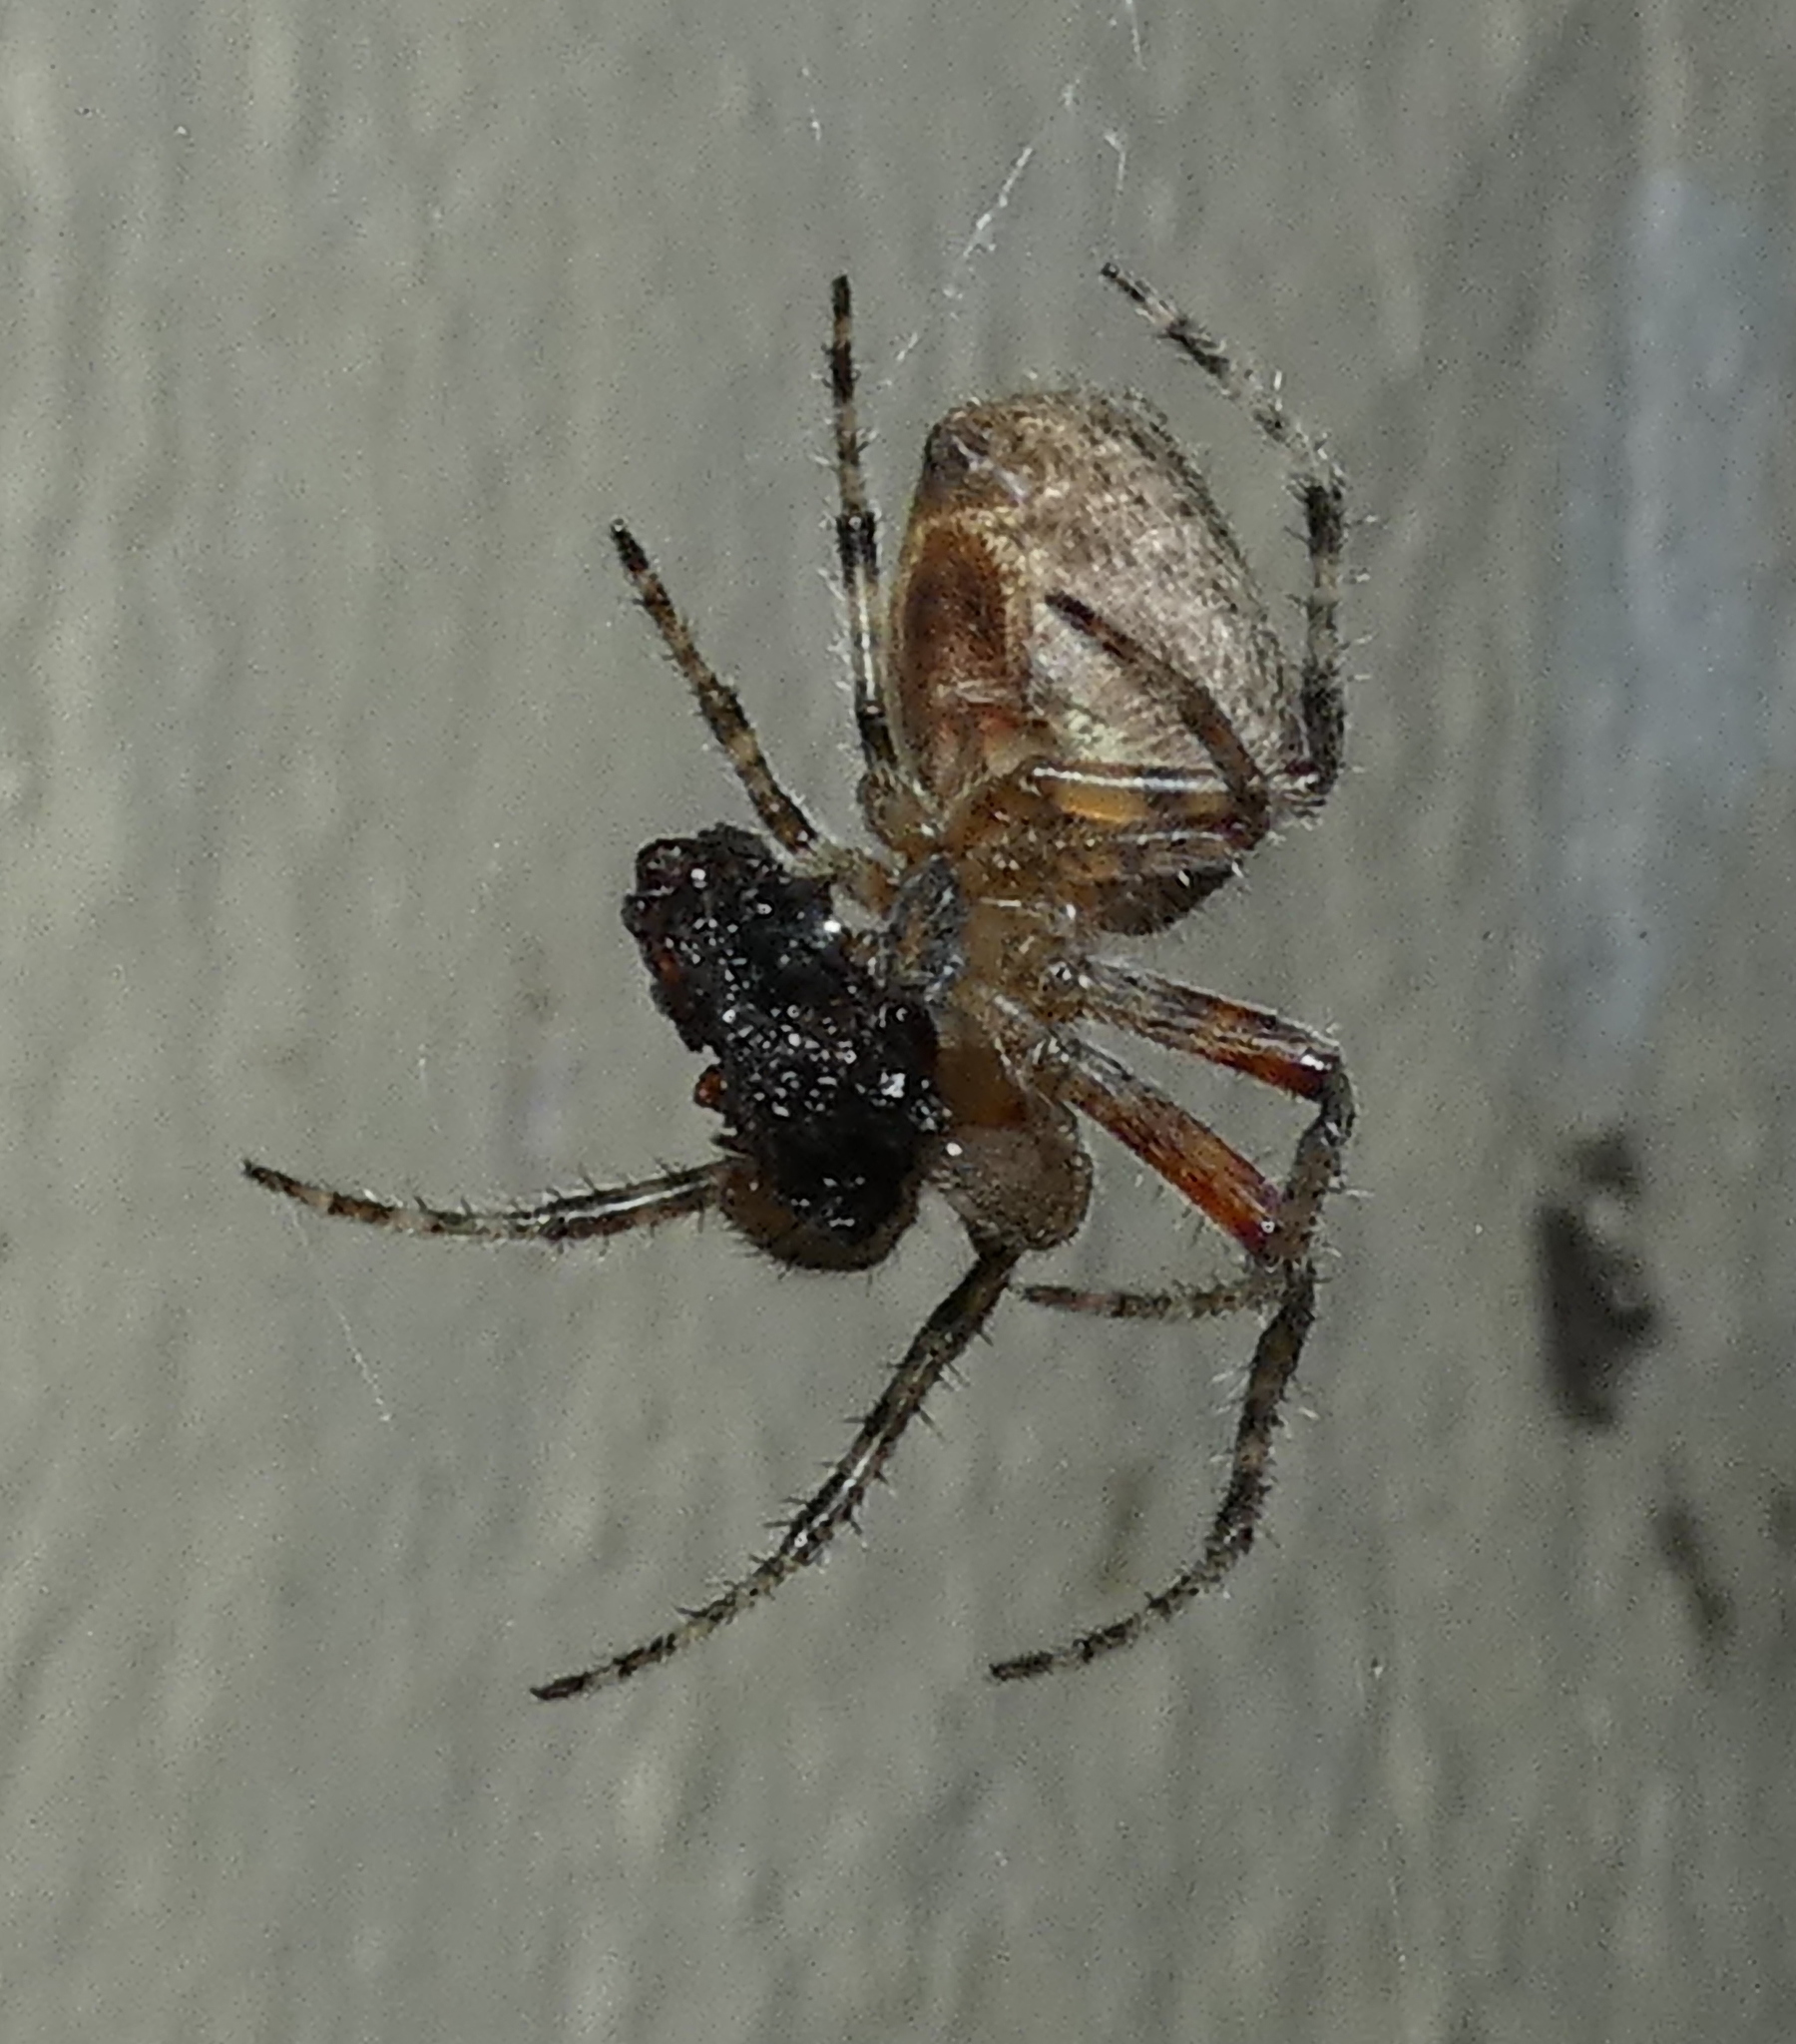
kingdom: Animalia
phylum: Arthropoda
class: Arachnida
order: Araneae
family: Araneidae
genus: Eriophora
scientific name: Eriophora edax
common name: Orb weavers
